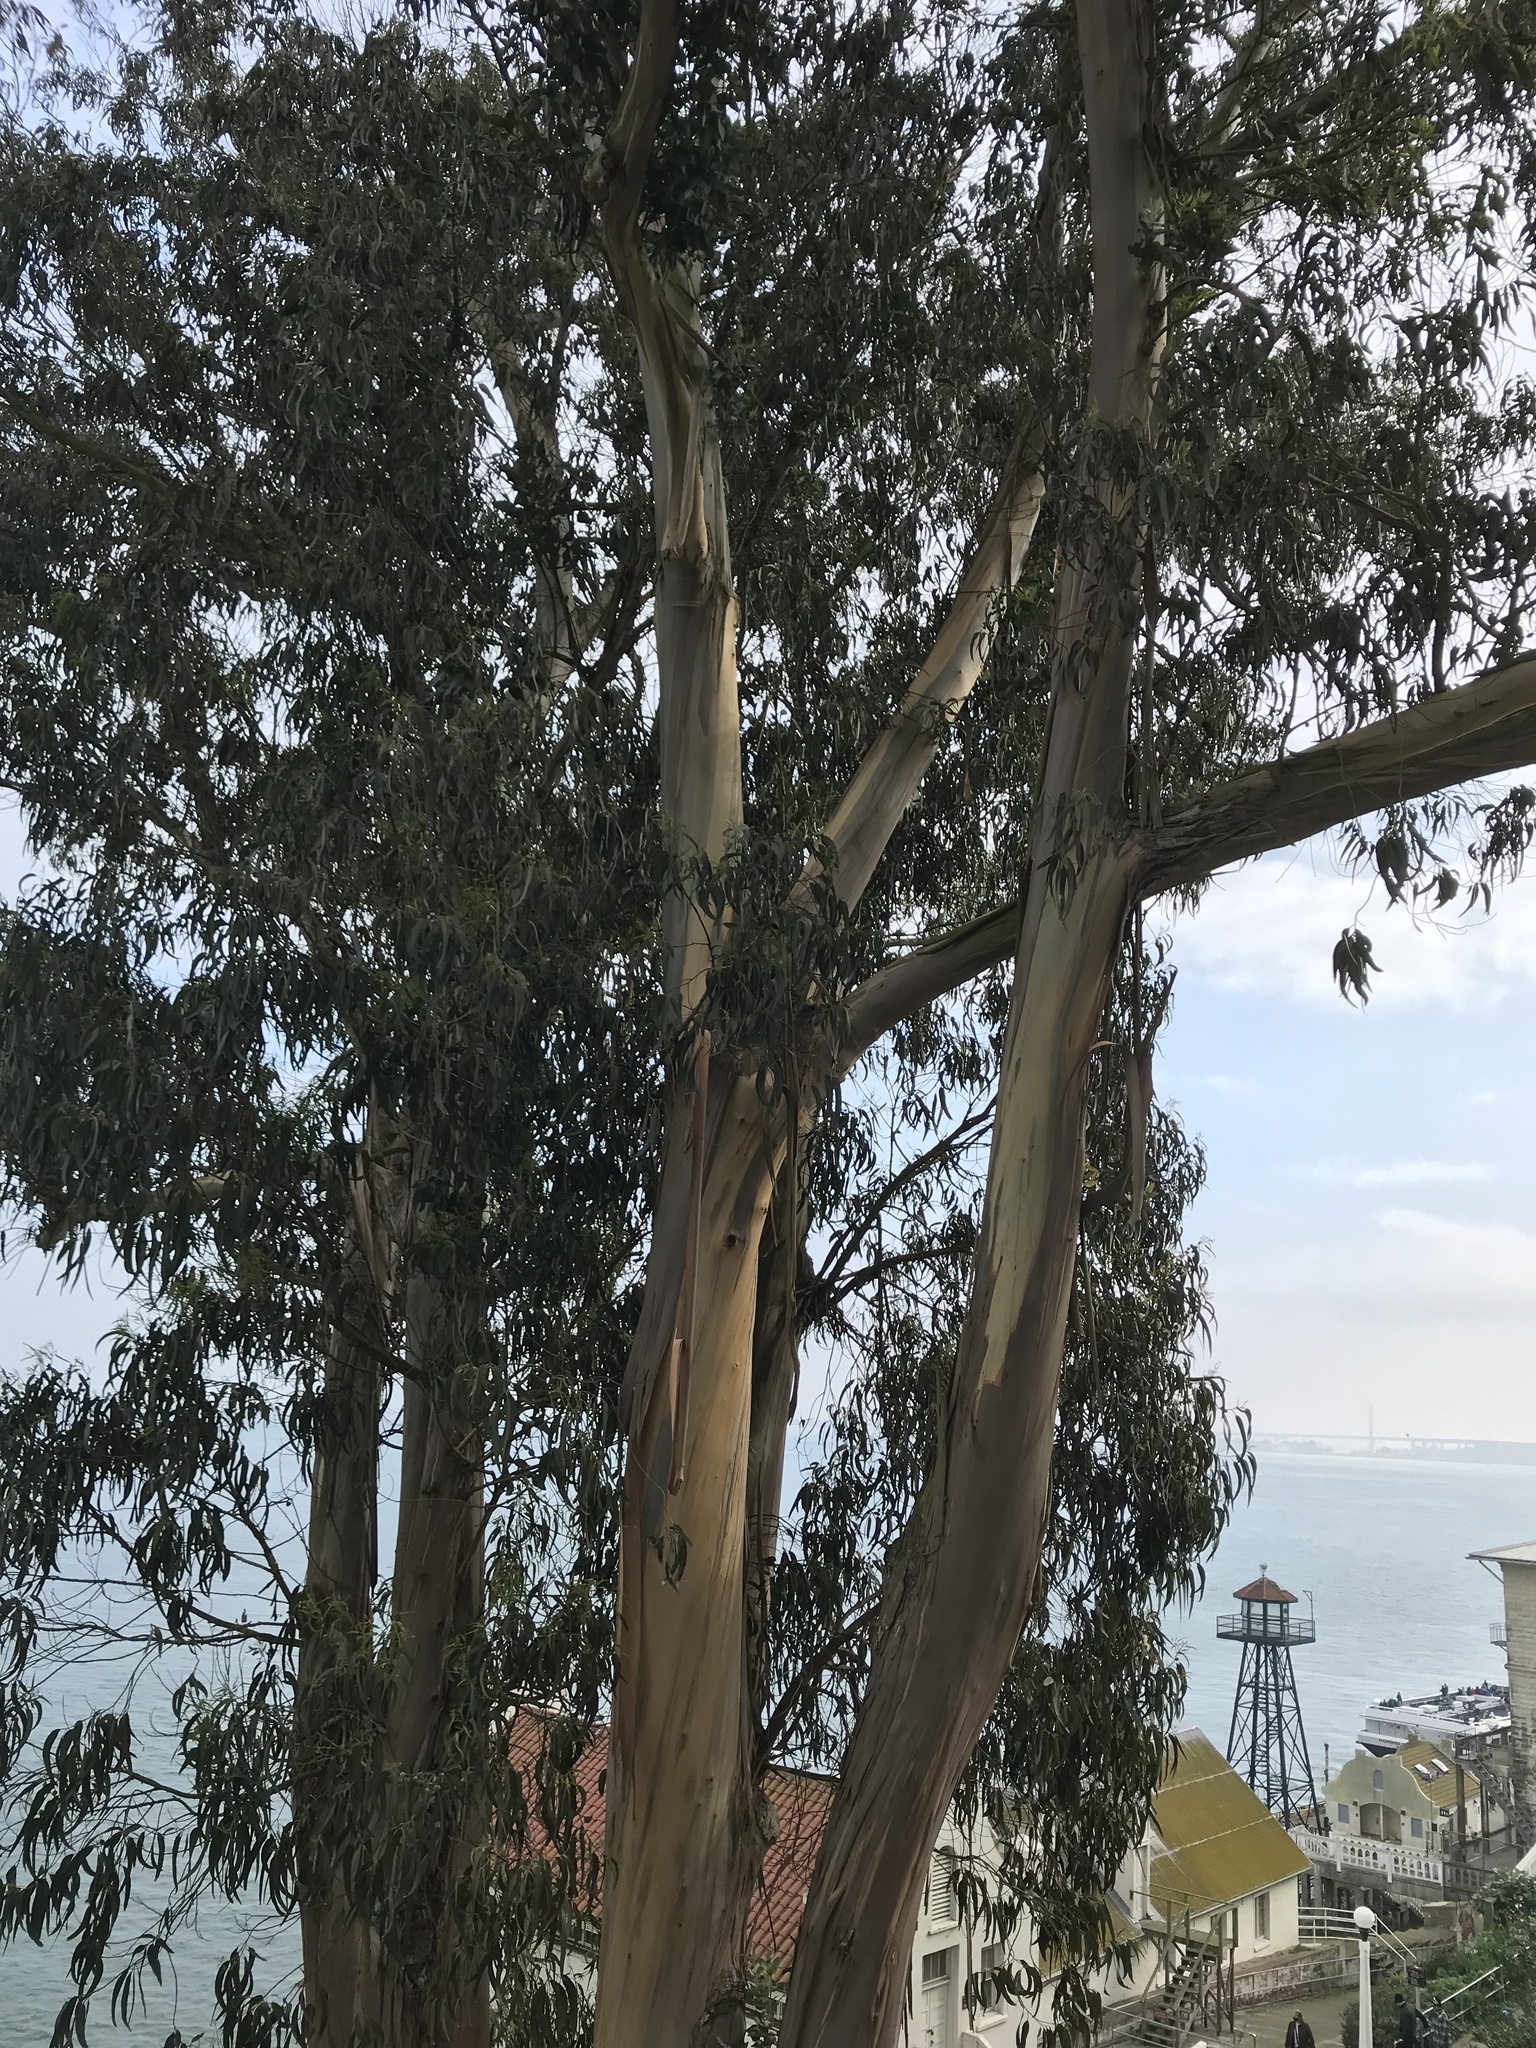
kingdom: Plantae
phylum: Tracheophyta
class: Magnoliopsida
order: Myrtales
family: Myrtaceae
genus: Eucalyptus
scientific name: Eucalyptus globulus
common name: Southern blue-gum
